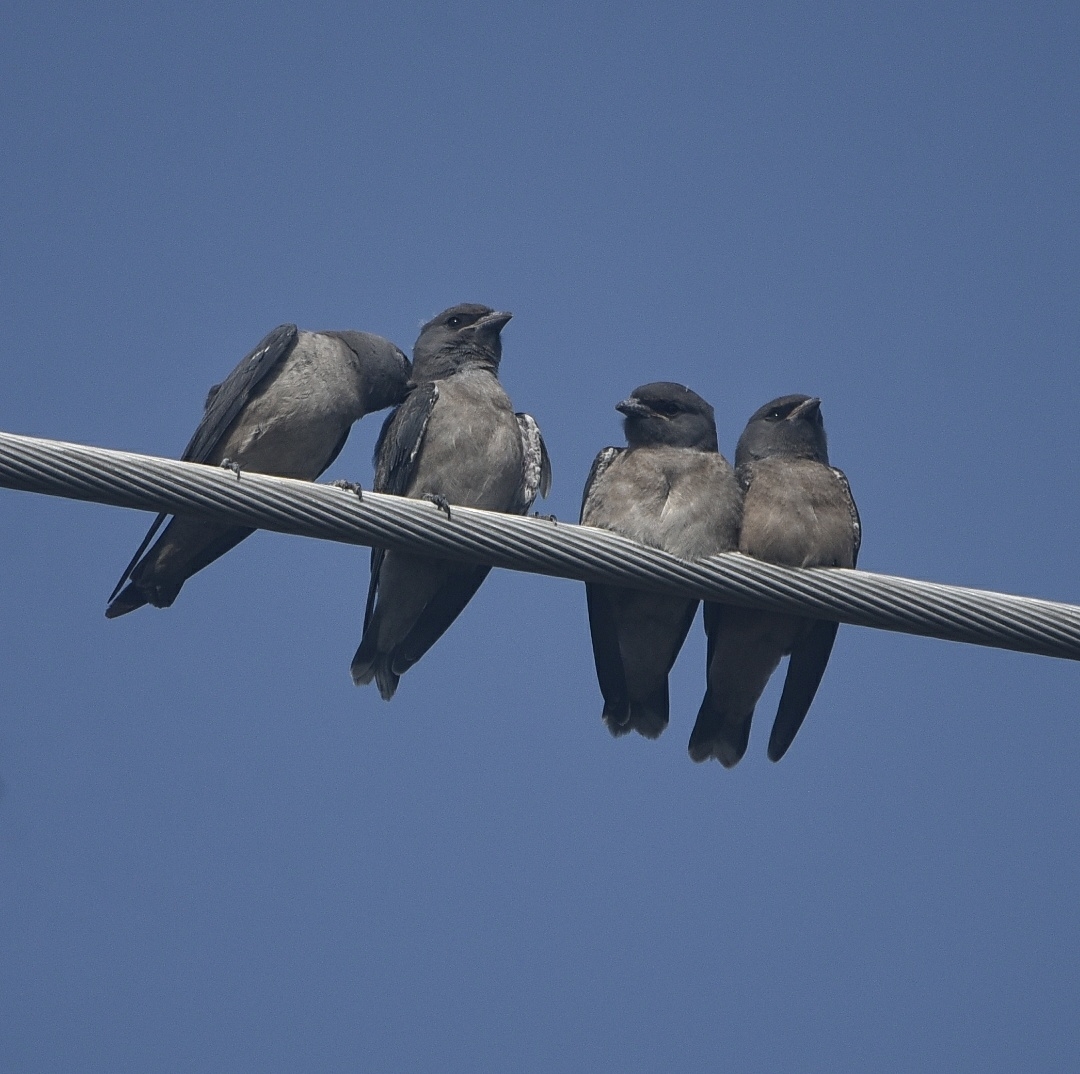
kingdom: Animalia
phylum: Chordata
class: Aves
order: Passeriformes
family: Artamidae
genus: Artamus
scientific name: Artamus fuscus
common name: Ashy woodswallow
